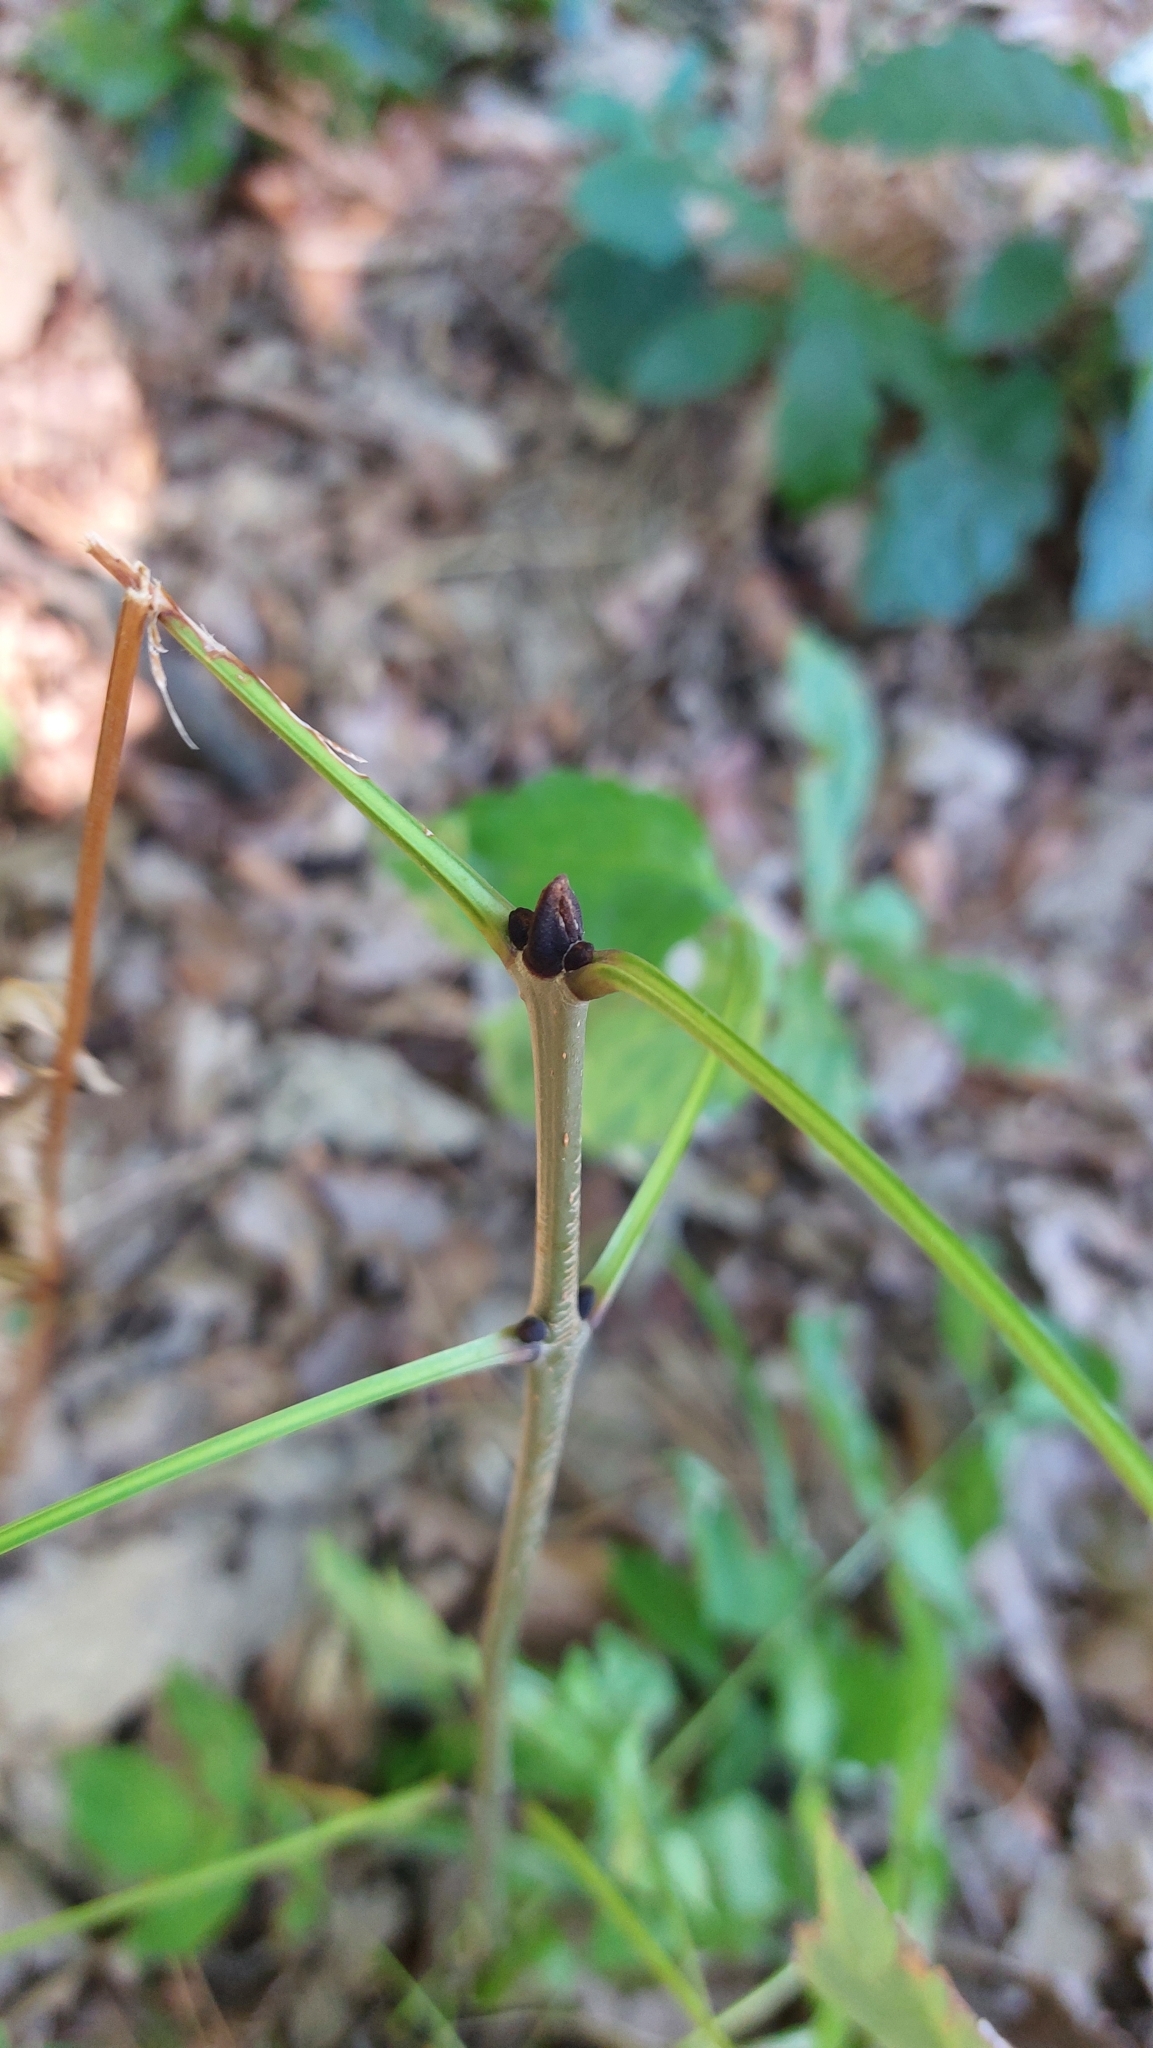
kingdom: Plantae
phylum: Tracheophyta
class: Magnoliopsida
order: Lamiales
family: Oleaceae
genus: Fraxinus
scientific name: Fraxinus excelsior
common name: European ash
